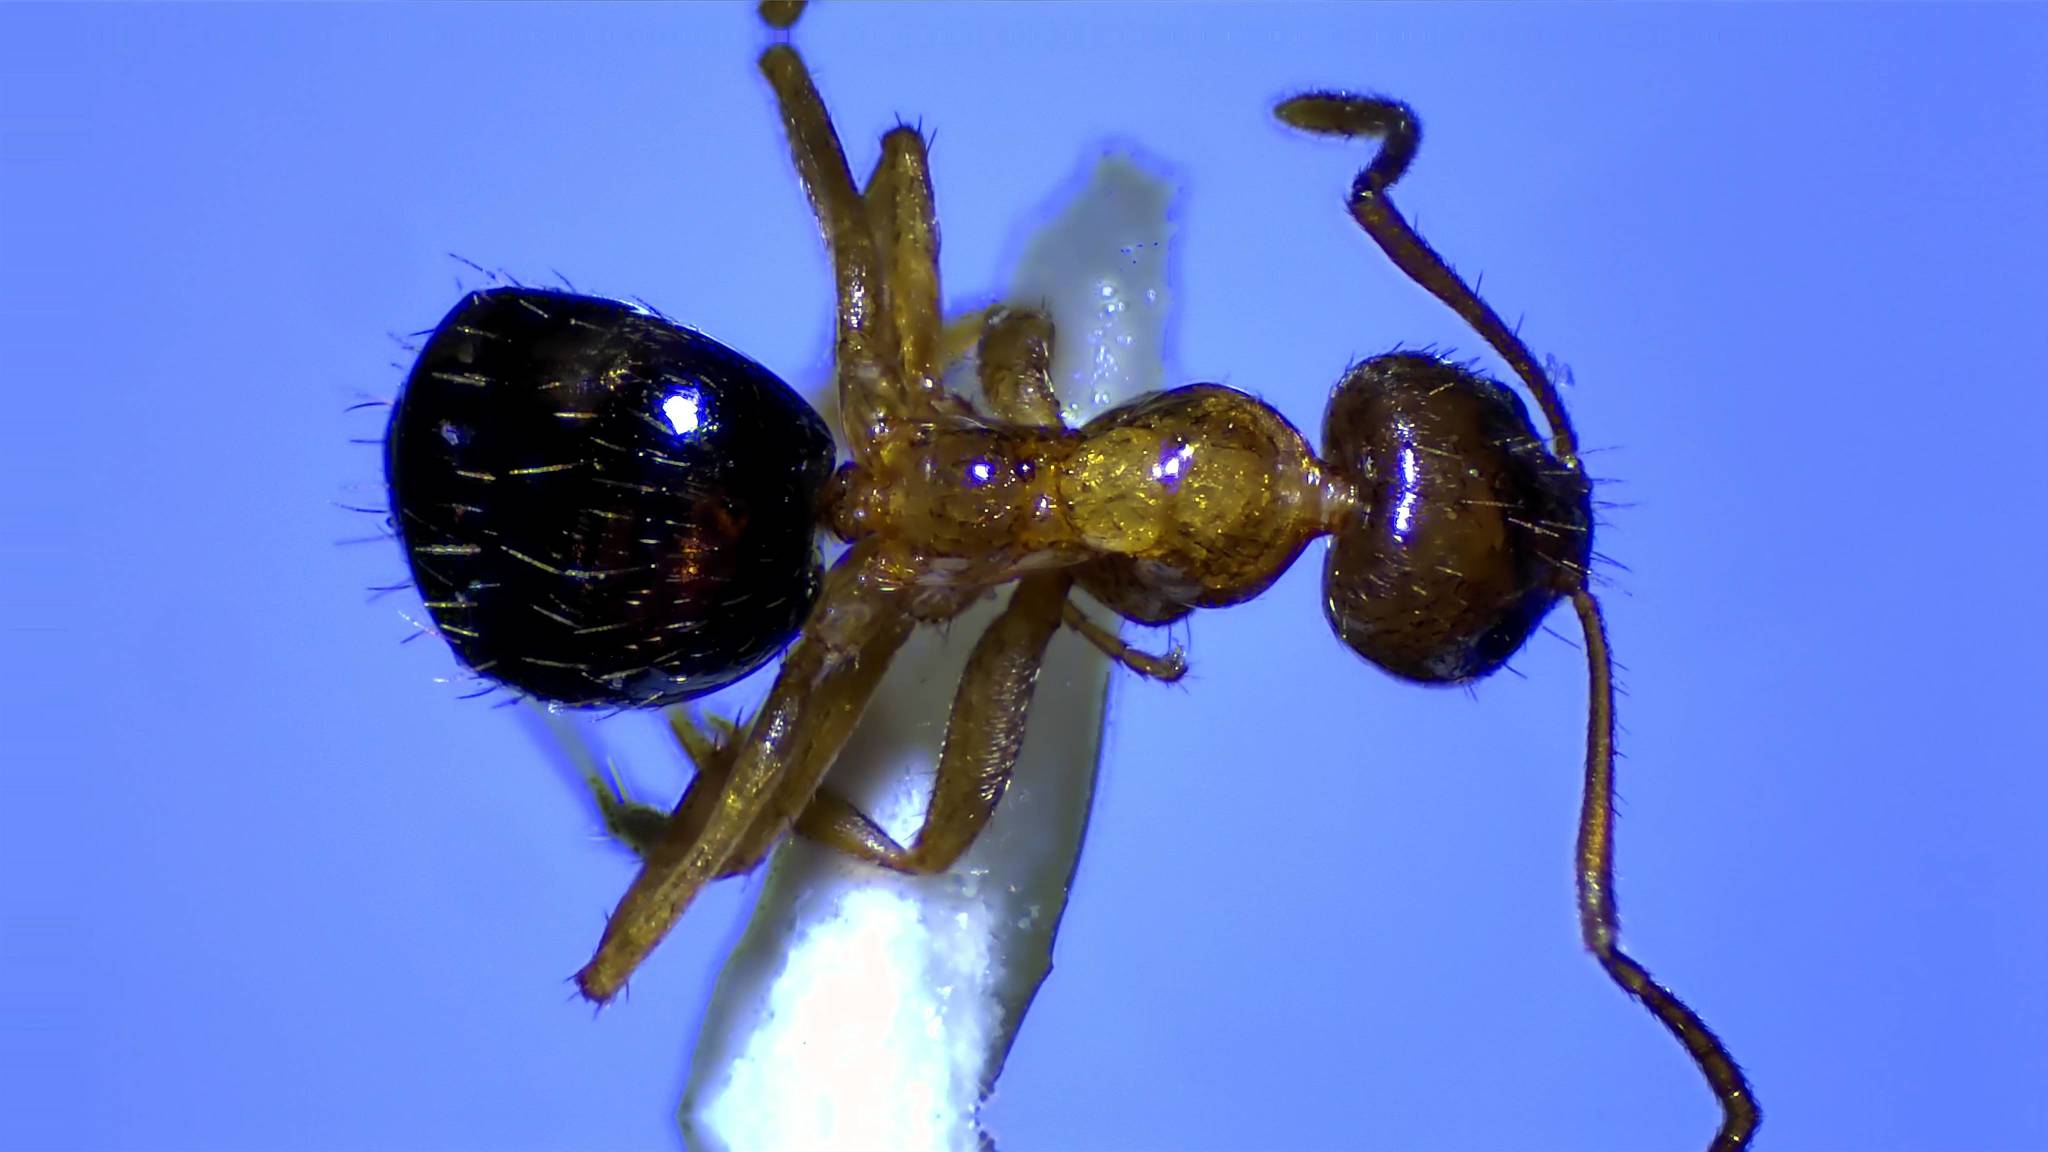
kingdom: Animalia
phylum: Arthropoda
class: Insecta
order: Hymenoptera
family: Formicidae
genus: Paratrechina
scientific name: Paratrechina flavipes
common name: Eastern asian formicine ant
